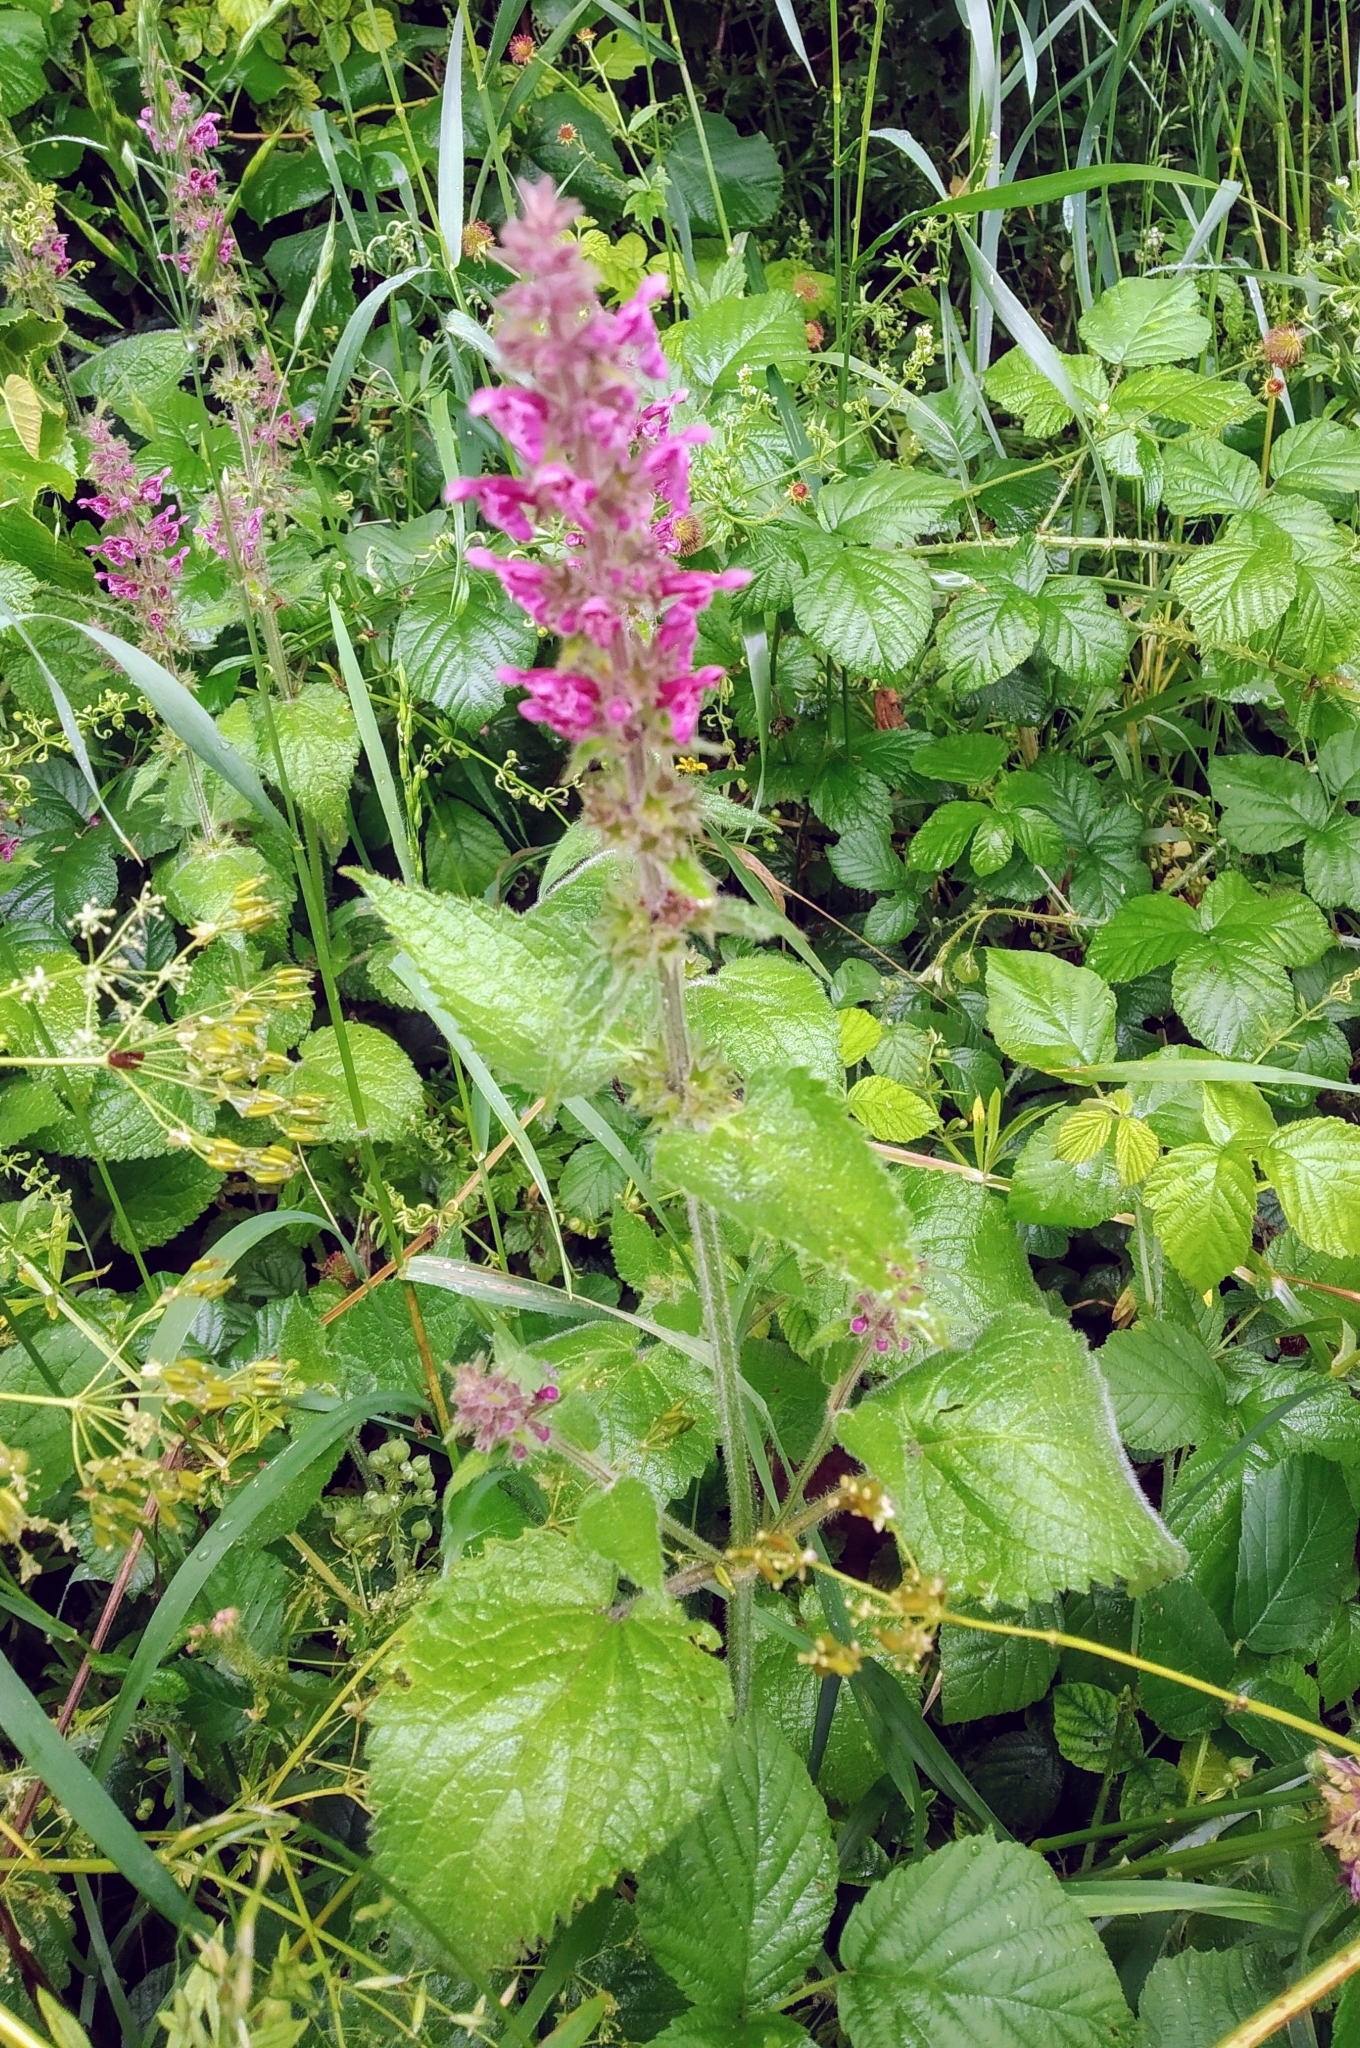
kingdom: Plantae
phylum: Tracheophyta
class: Magnoliopsida
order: Lamiales
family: Lamiaceae
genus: Stachys
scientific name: Stachys sylvatica
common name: Hedge woundwort
